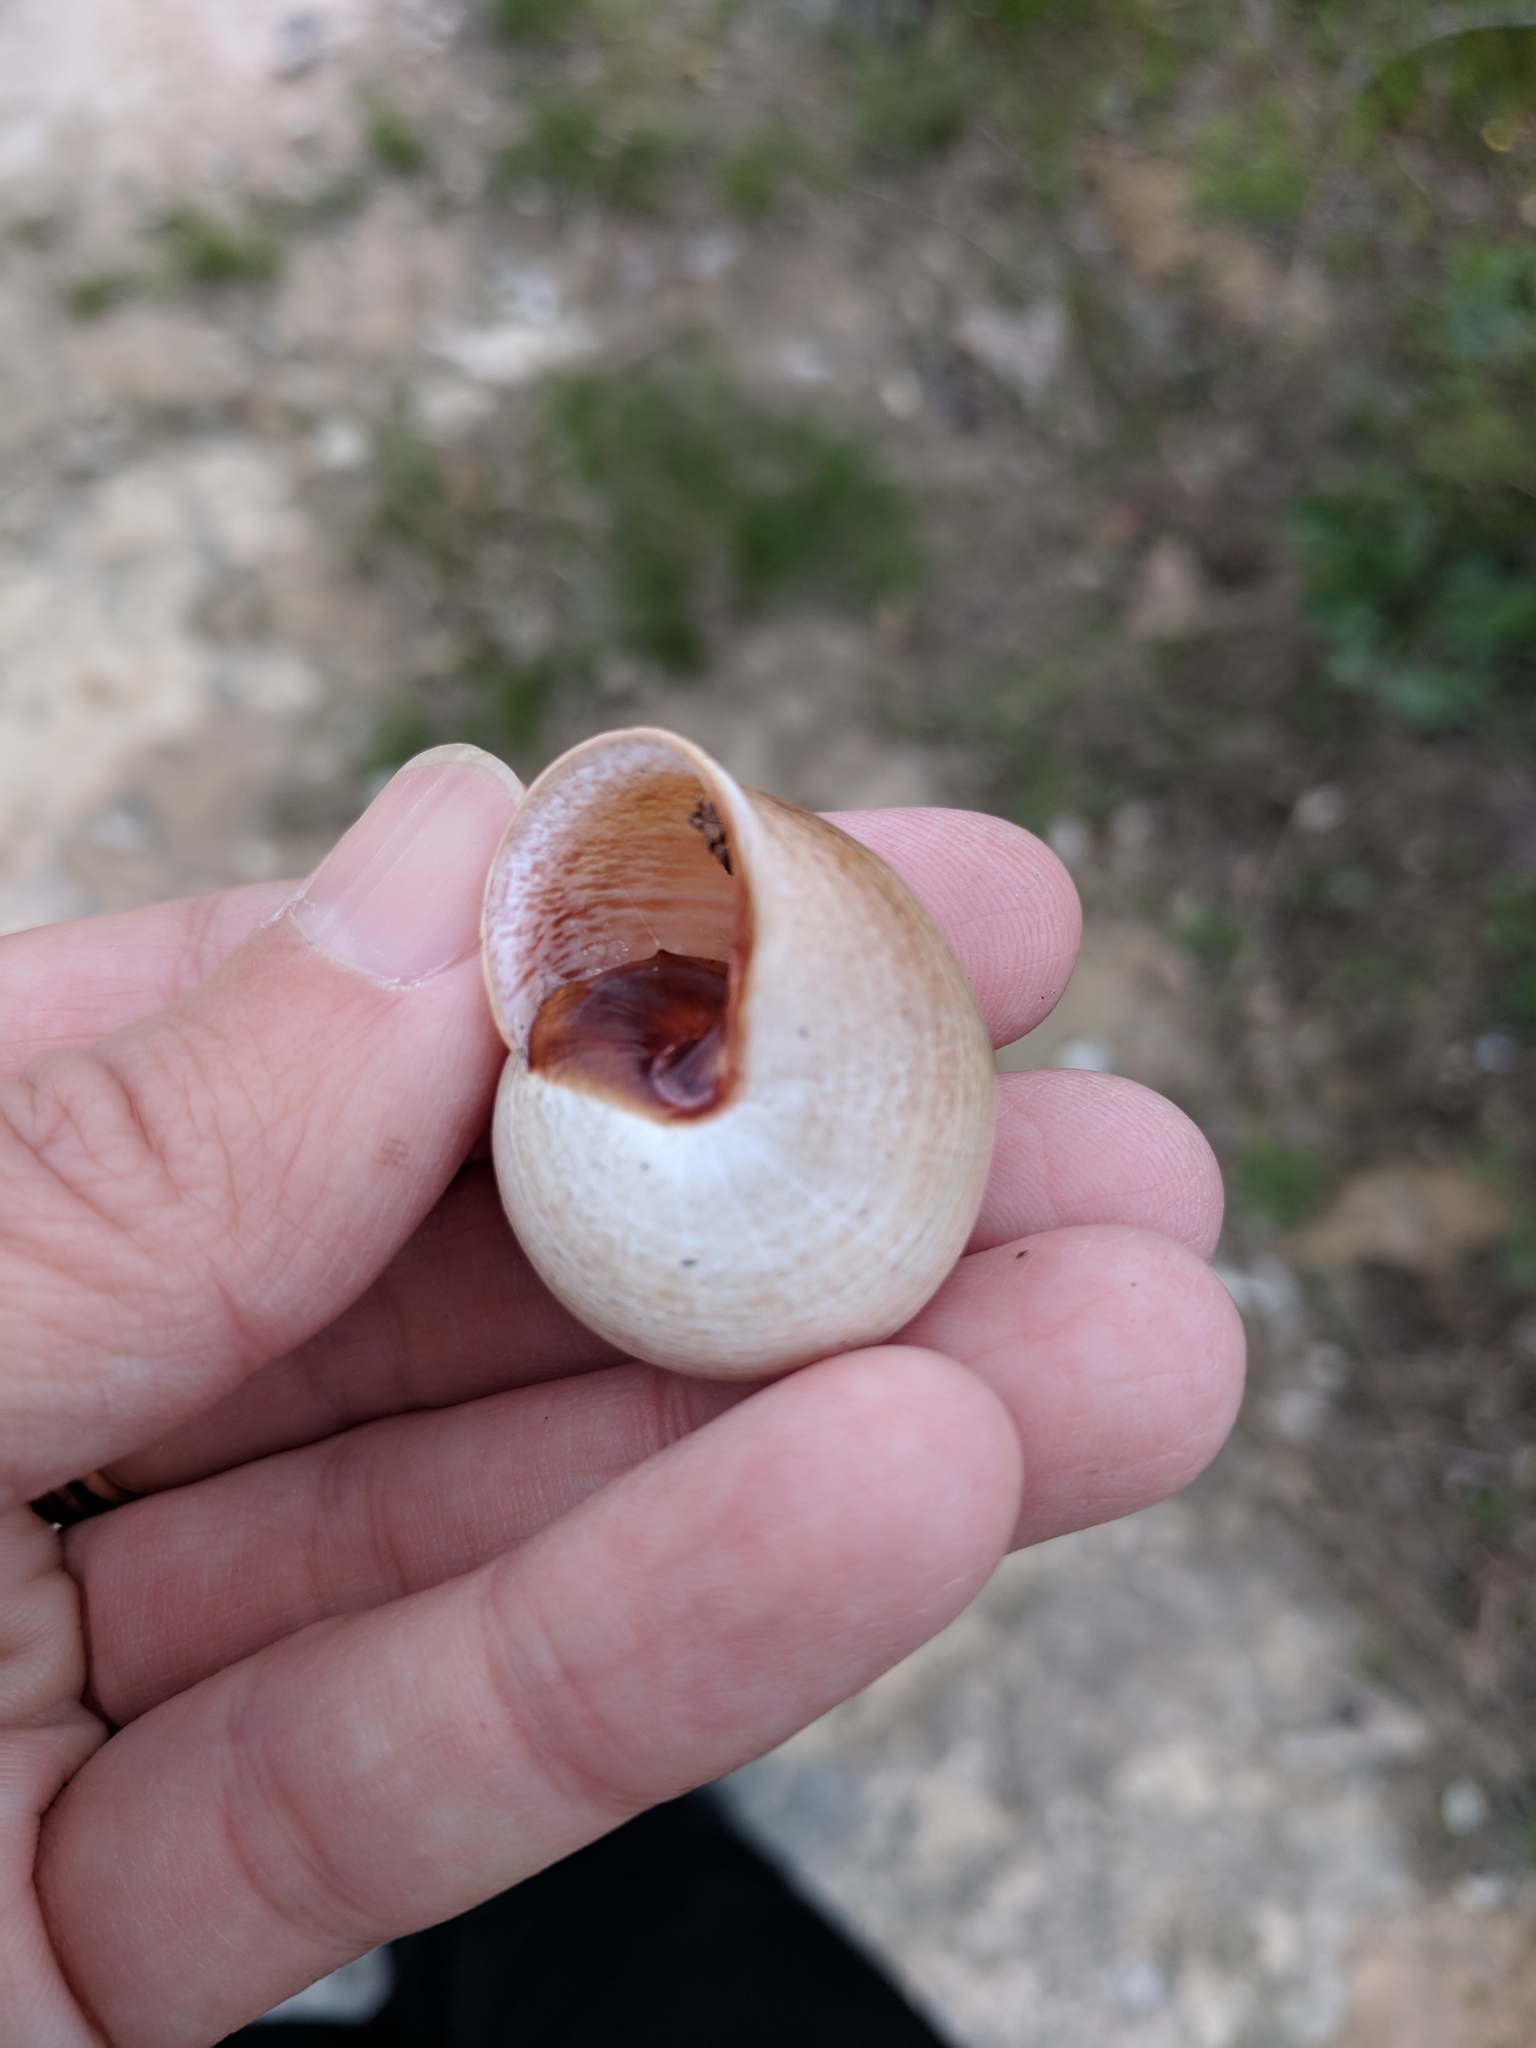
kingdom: Animalia
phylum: Mollusca
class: Gastropoda
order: Stylommatophora
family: Helicidae
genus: Otala
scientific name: Otala lactea
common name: Milk snail
